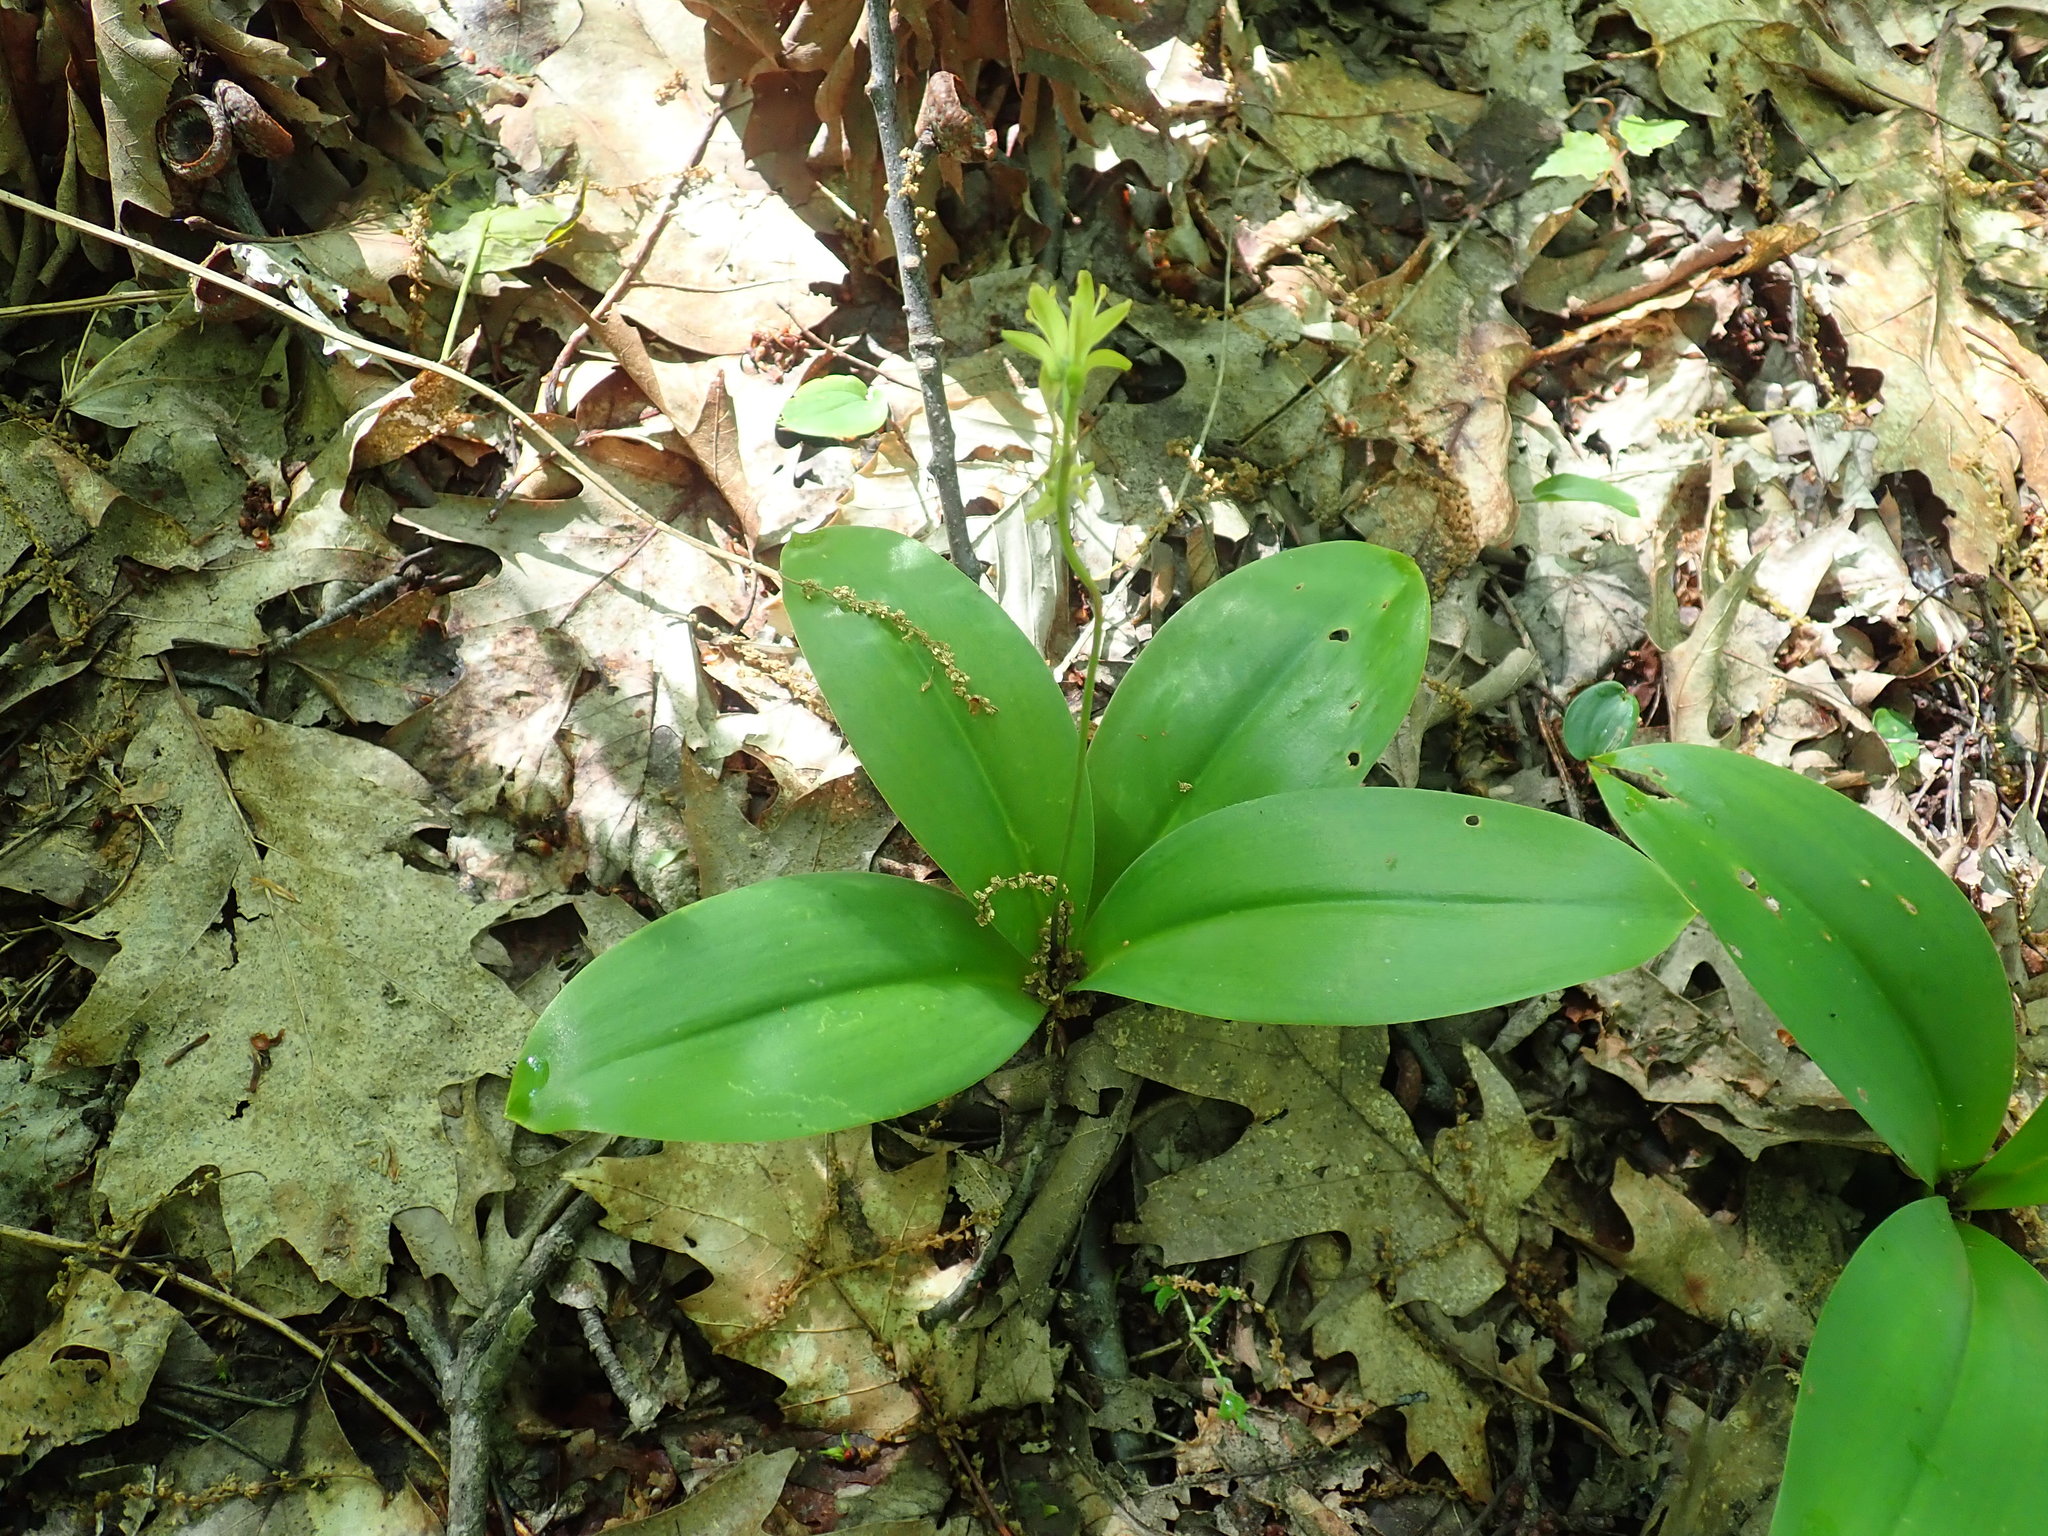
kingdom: Plantae
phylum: Tracheophyta
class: Liliopsida
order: Liliales
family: Liliaceae
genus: Clintonia
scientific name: Clintonia borealis
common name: Yellow clintonia
